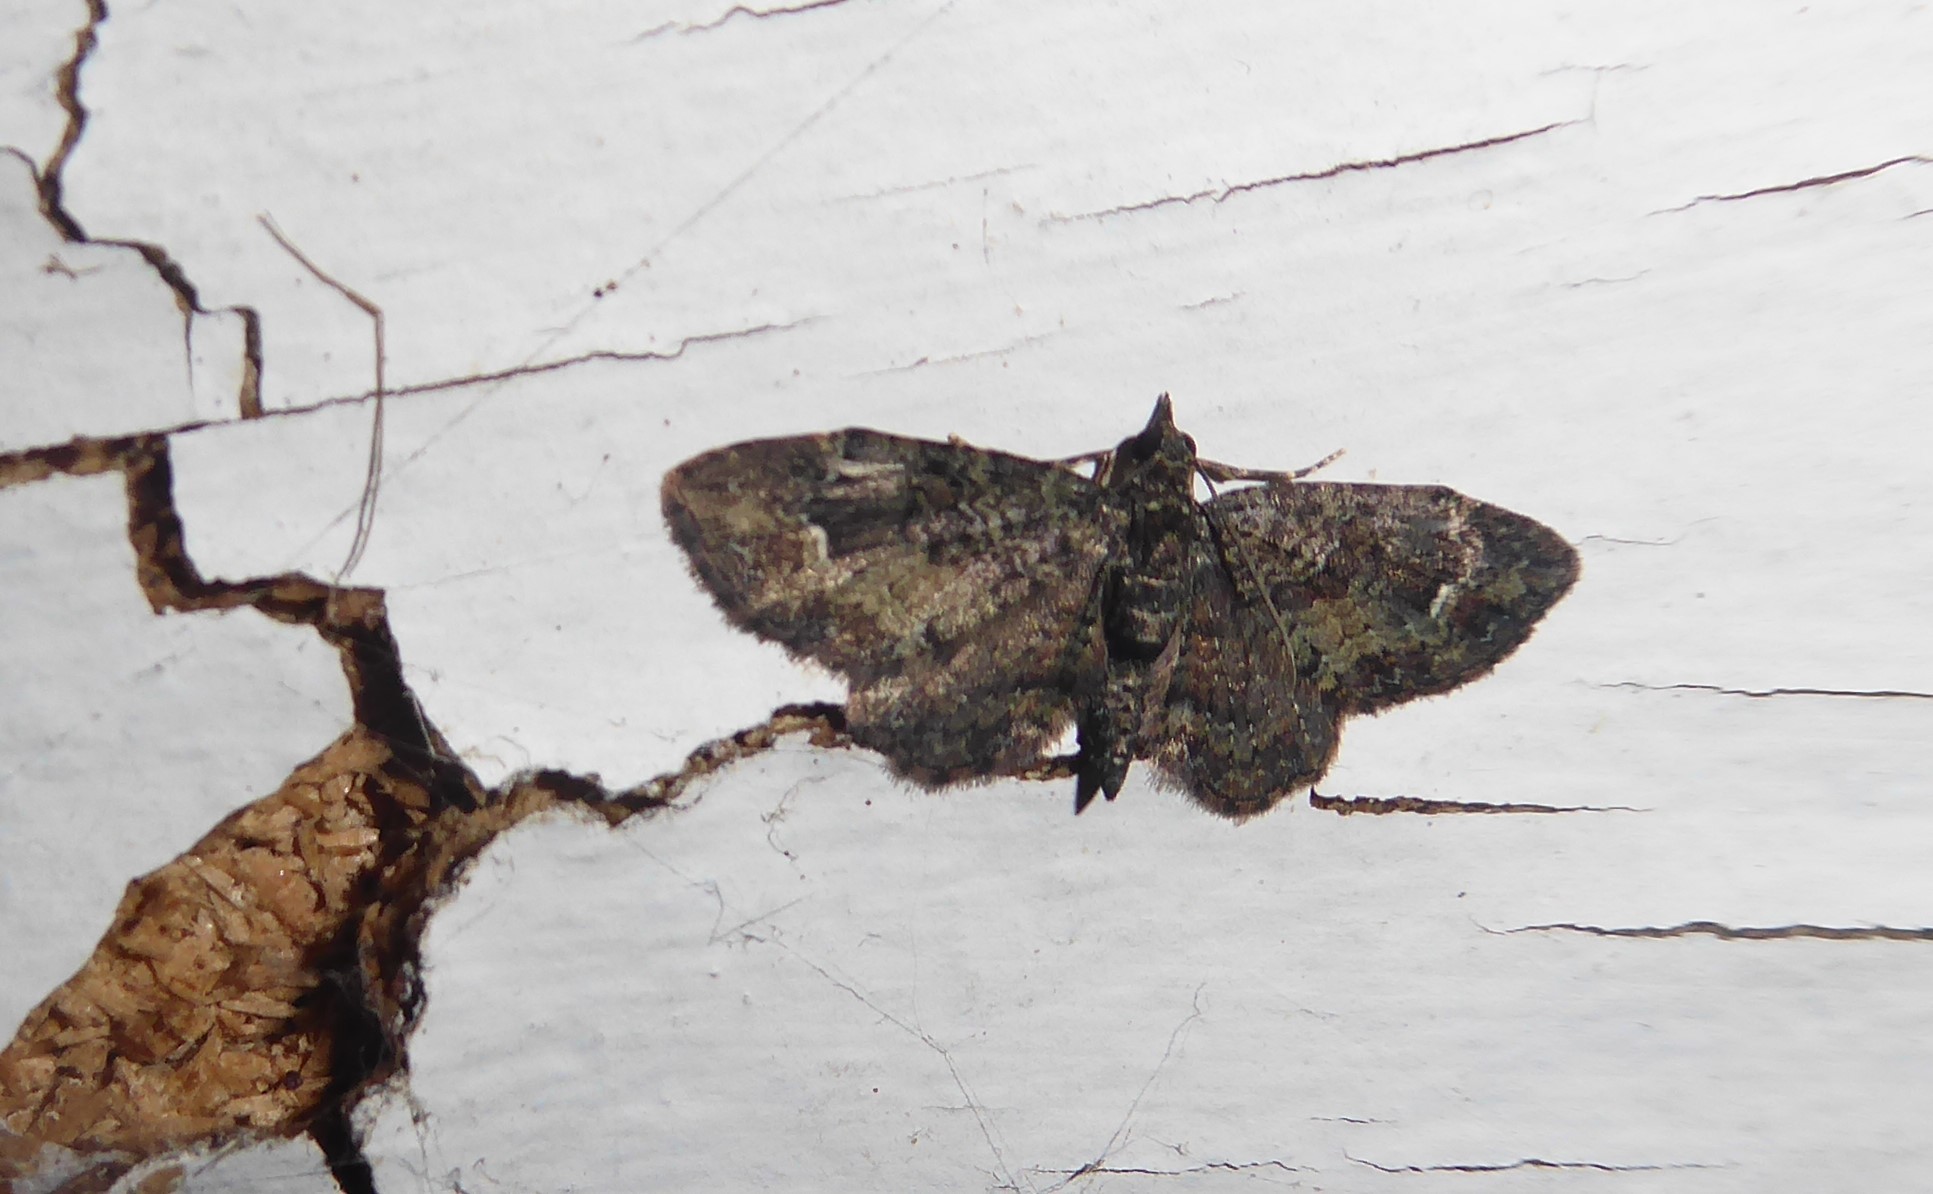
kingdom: Animalia
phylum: Arthropoda
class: Insecta
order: Lepidoptera
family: Geometridae
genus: Pasiphilodes
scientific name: Pasiphilodes testulata
